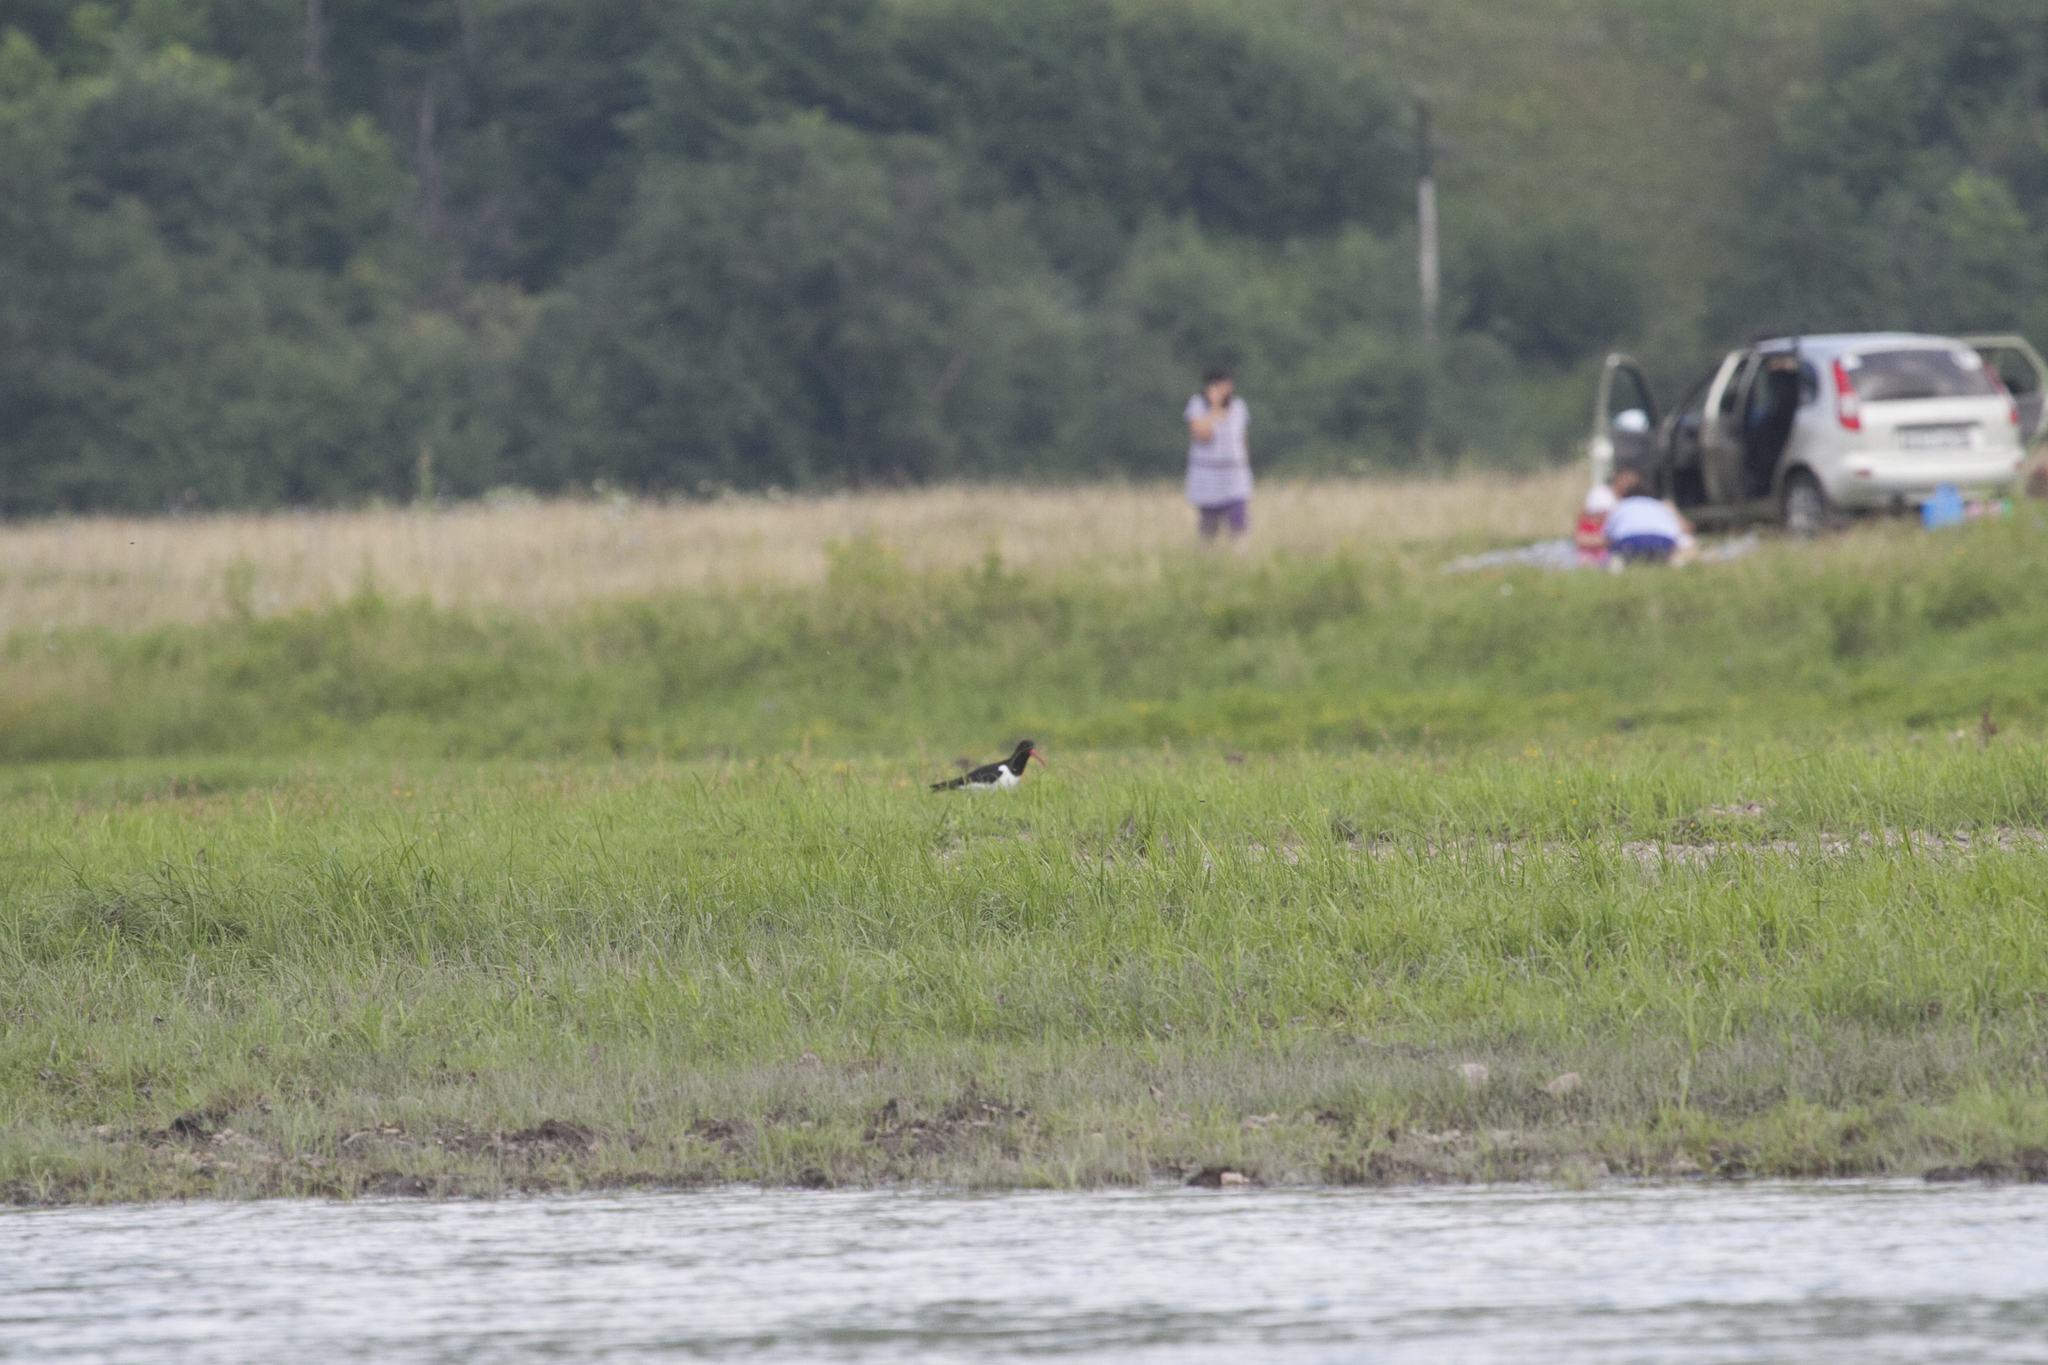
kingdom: Animalia
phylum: Chordata
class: Aves
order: Charadriiformes
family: Haematopodidae
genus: Haematopus
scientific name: Haematopus ostralegus
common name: Eurasian oystercatcher
